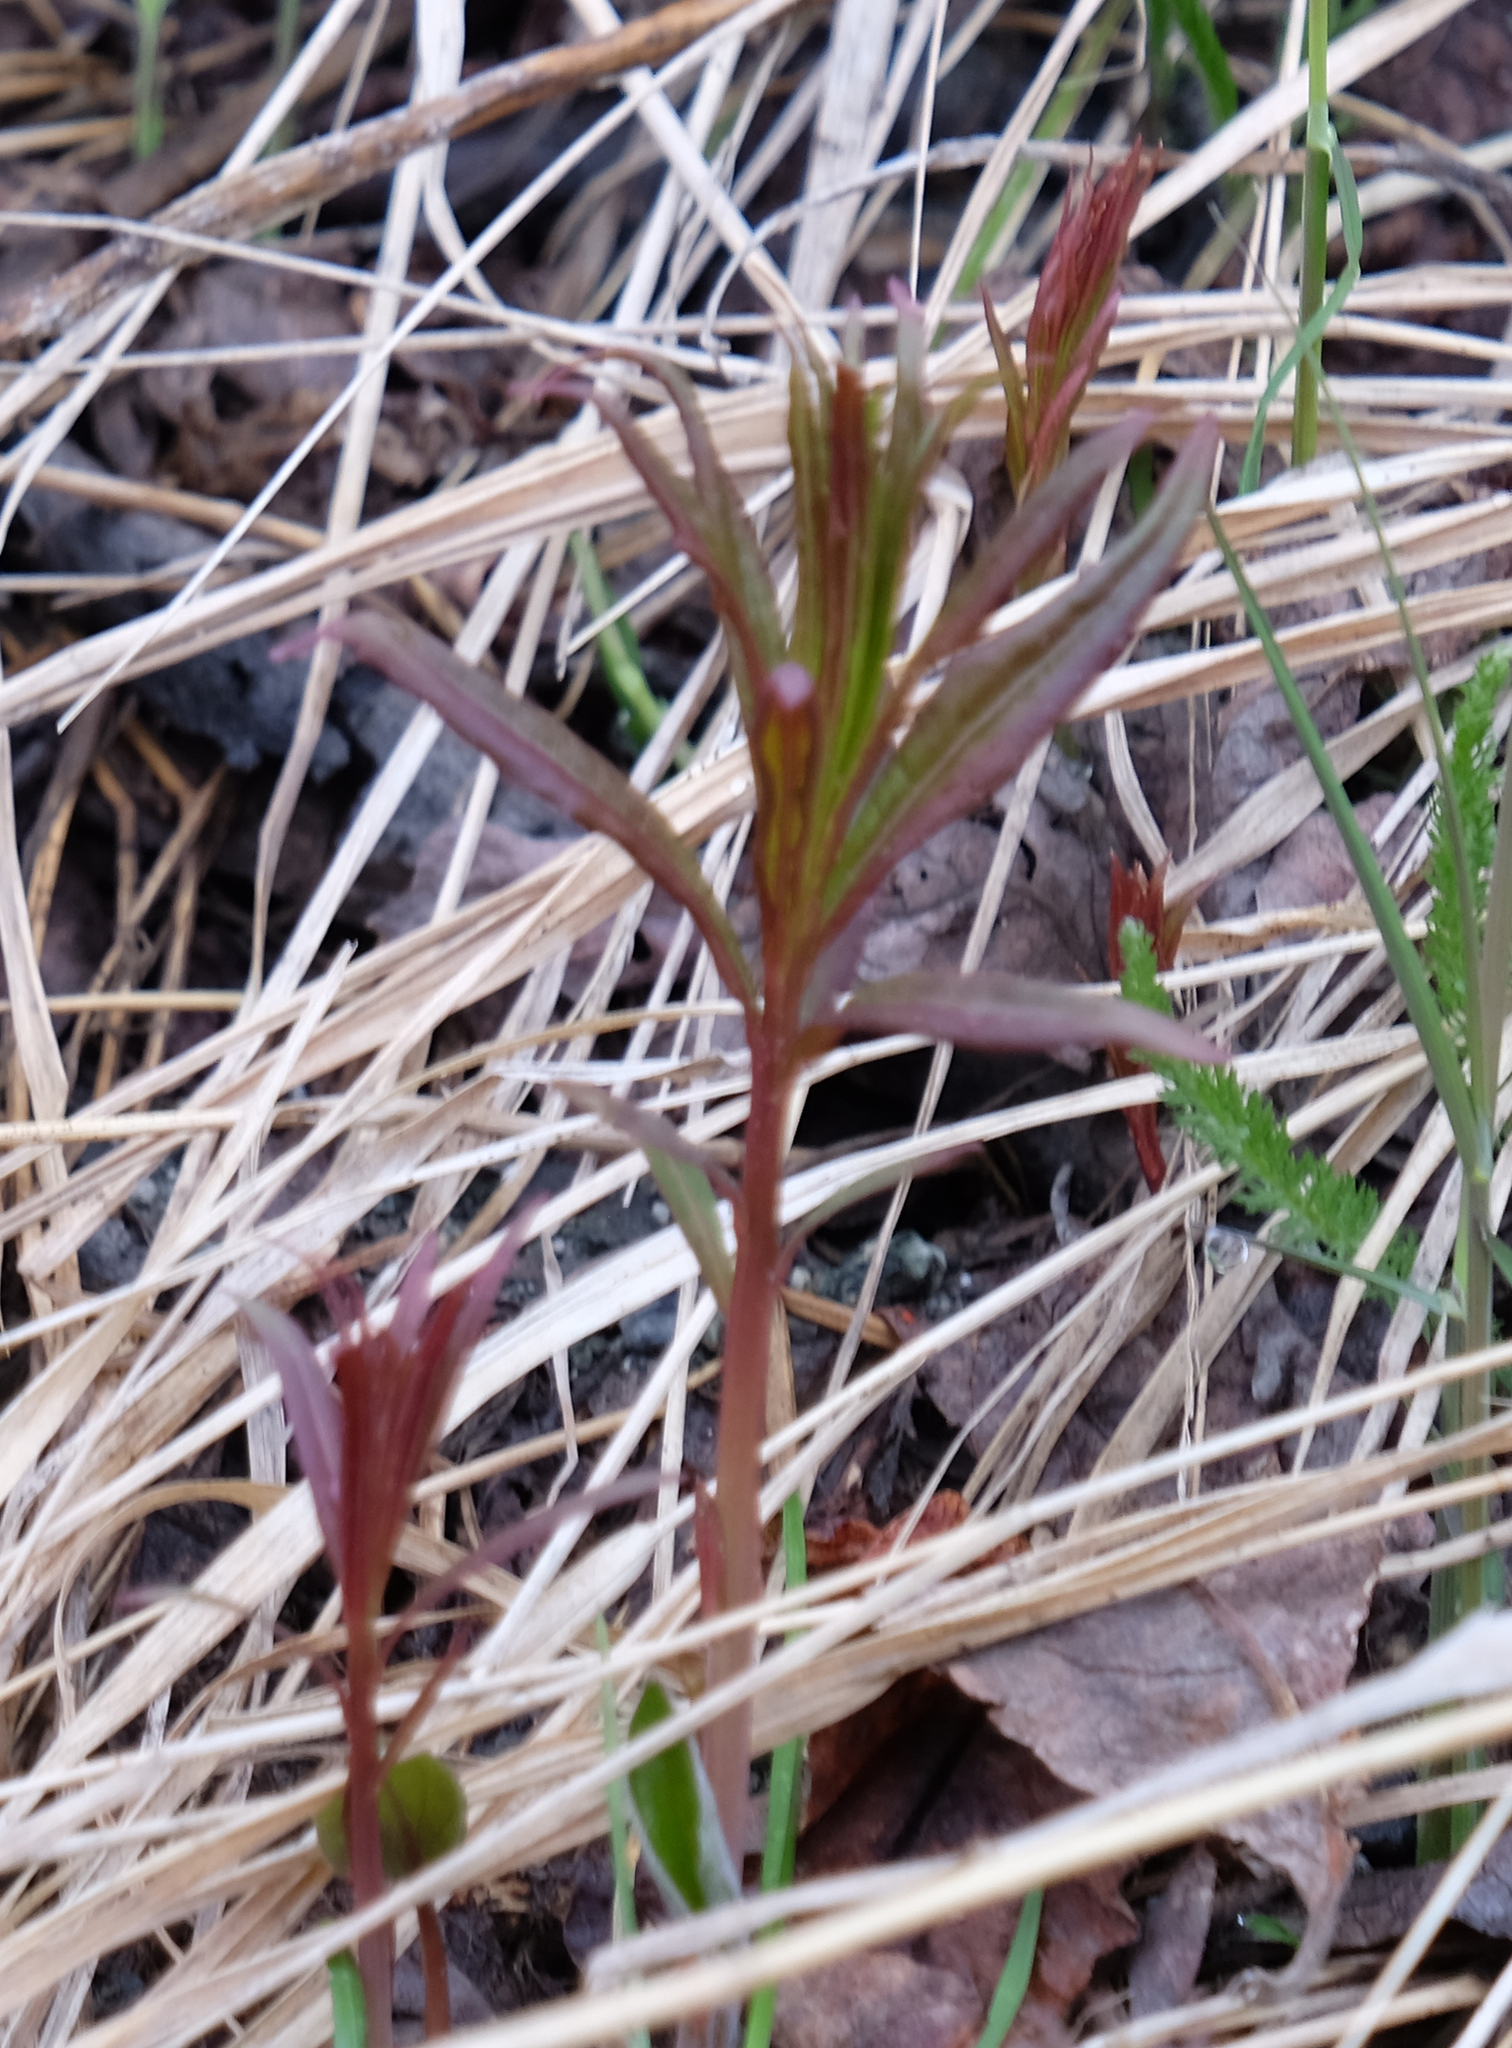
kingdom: Plantae
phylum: Tracheophyta
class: Magnoliopsida
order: Myrtales
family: Onagraceae
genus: Chamaenerion
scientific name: Chamaenerion angustifolium
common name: Fireweed
